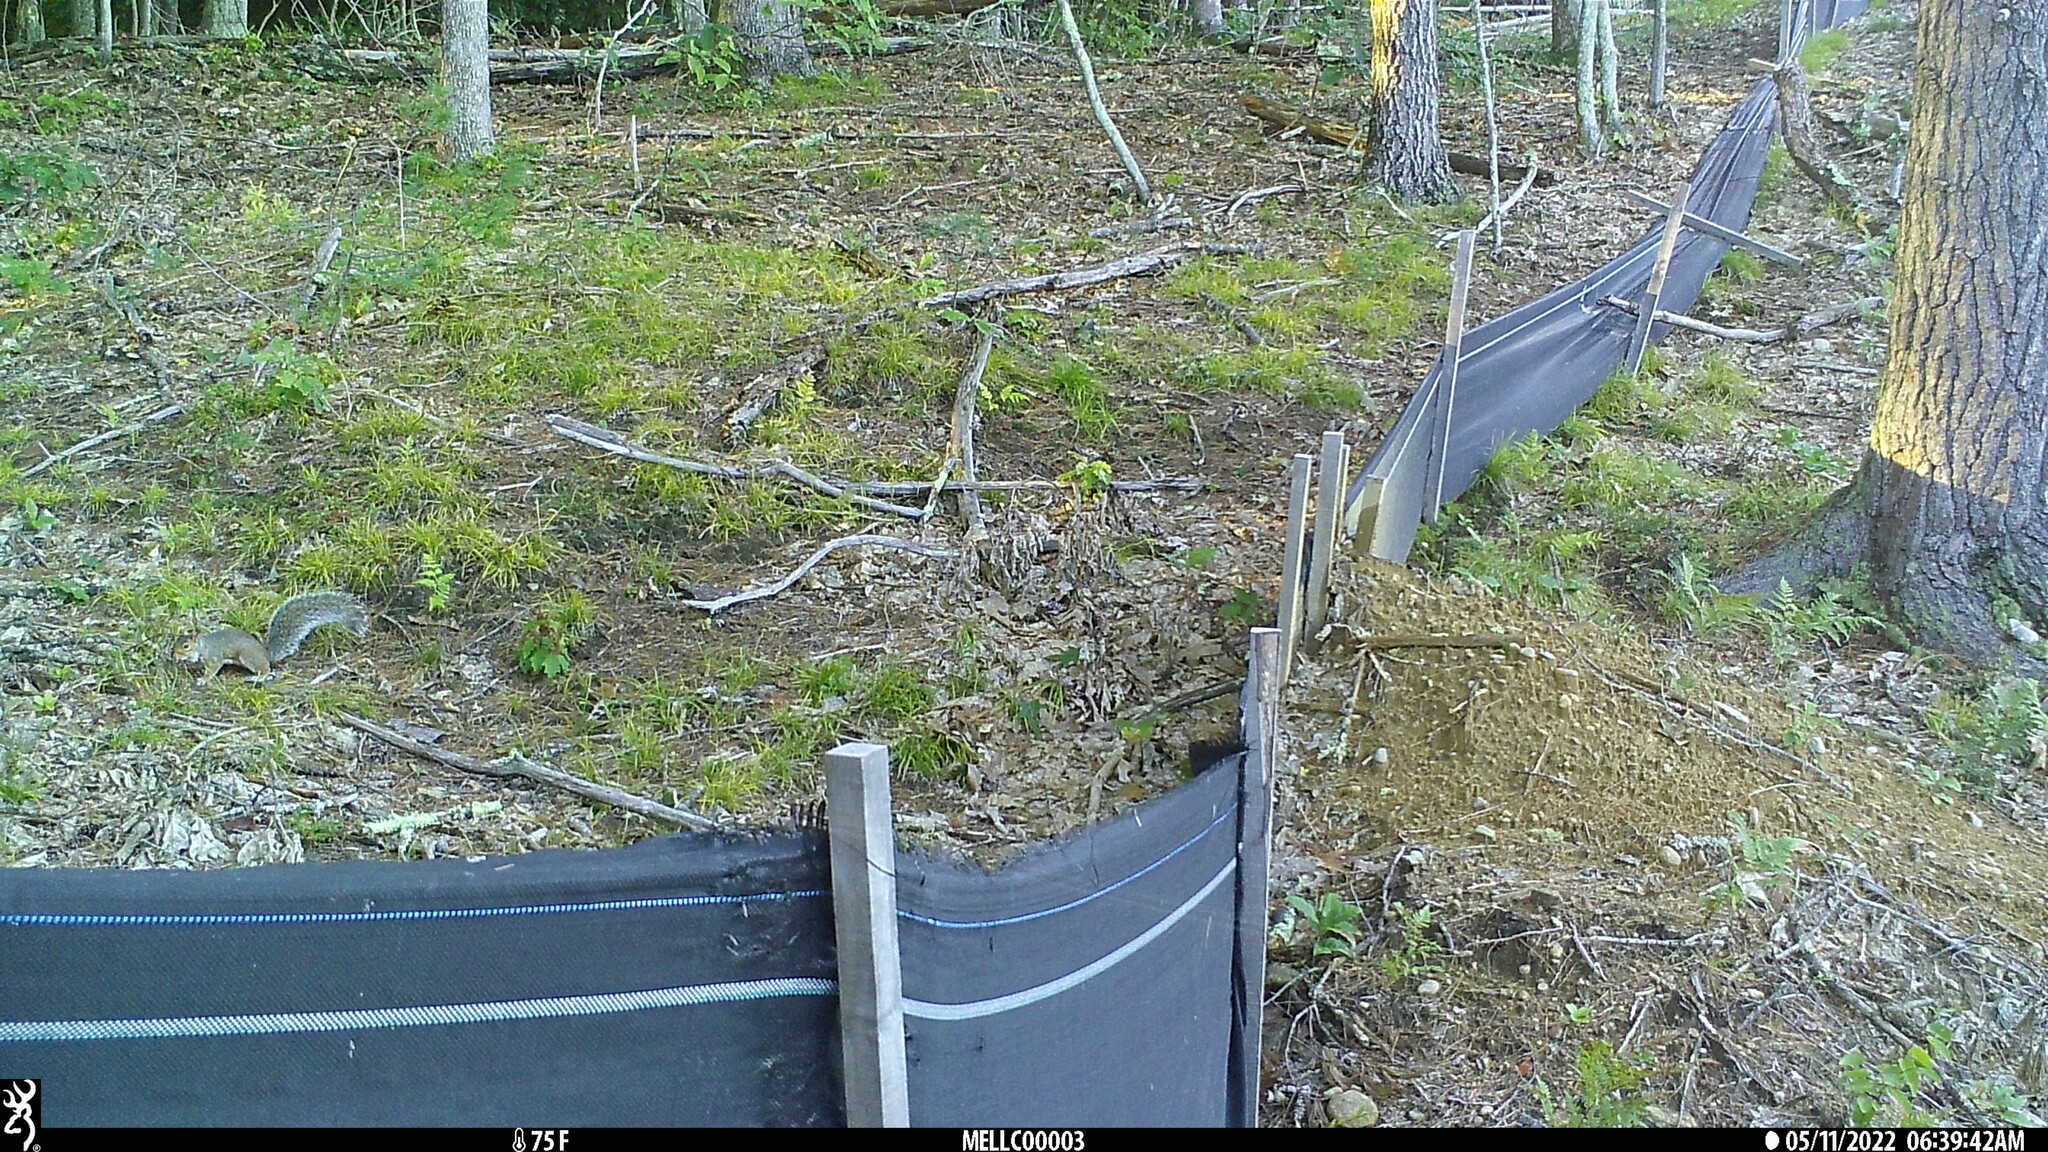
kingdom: Animalia
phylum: Chordata
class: Mammalia
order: Rodentia
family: Sciuridae
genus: Sciurus
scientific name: Sciurus carolinensis
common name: Eastern gray squirrel
